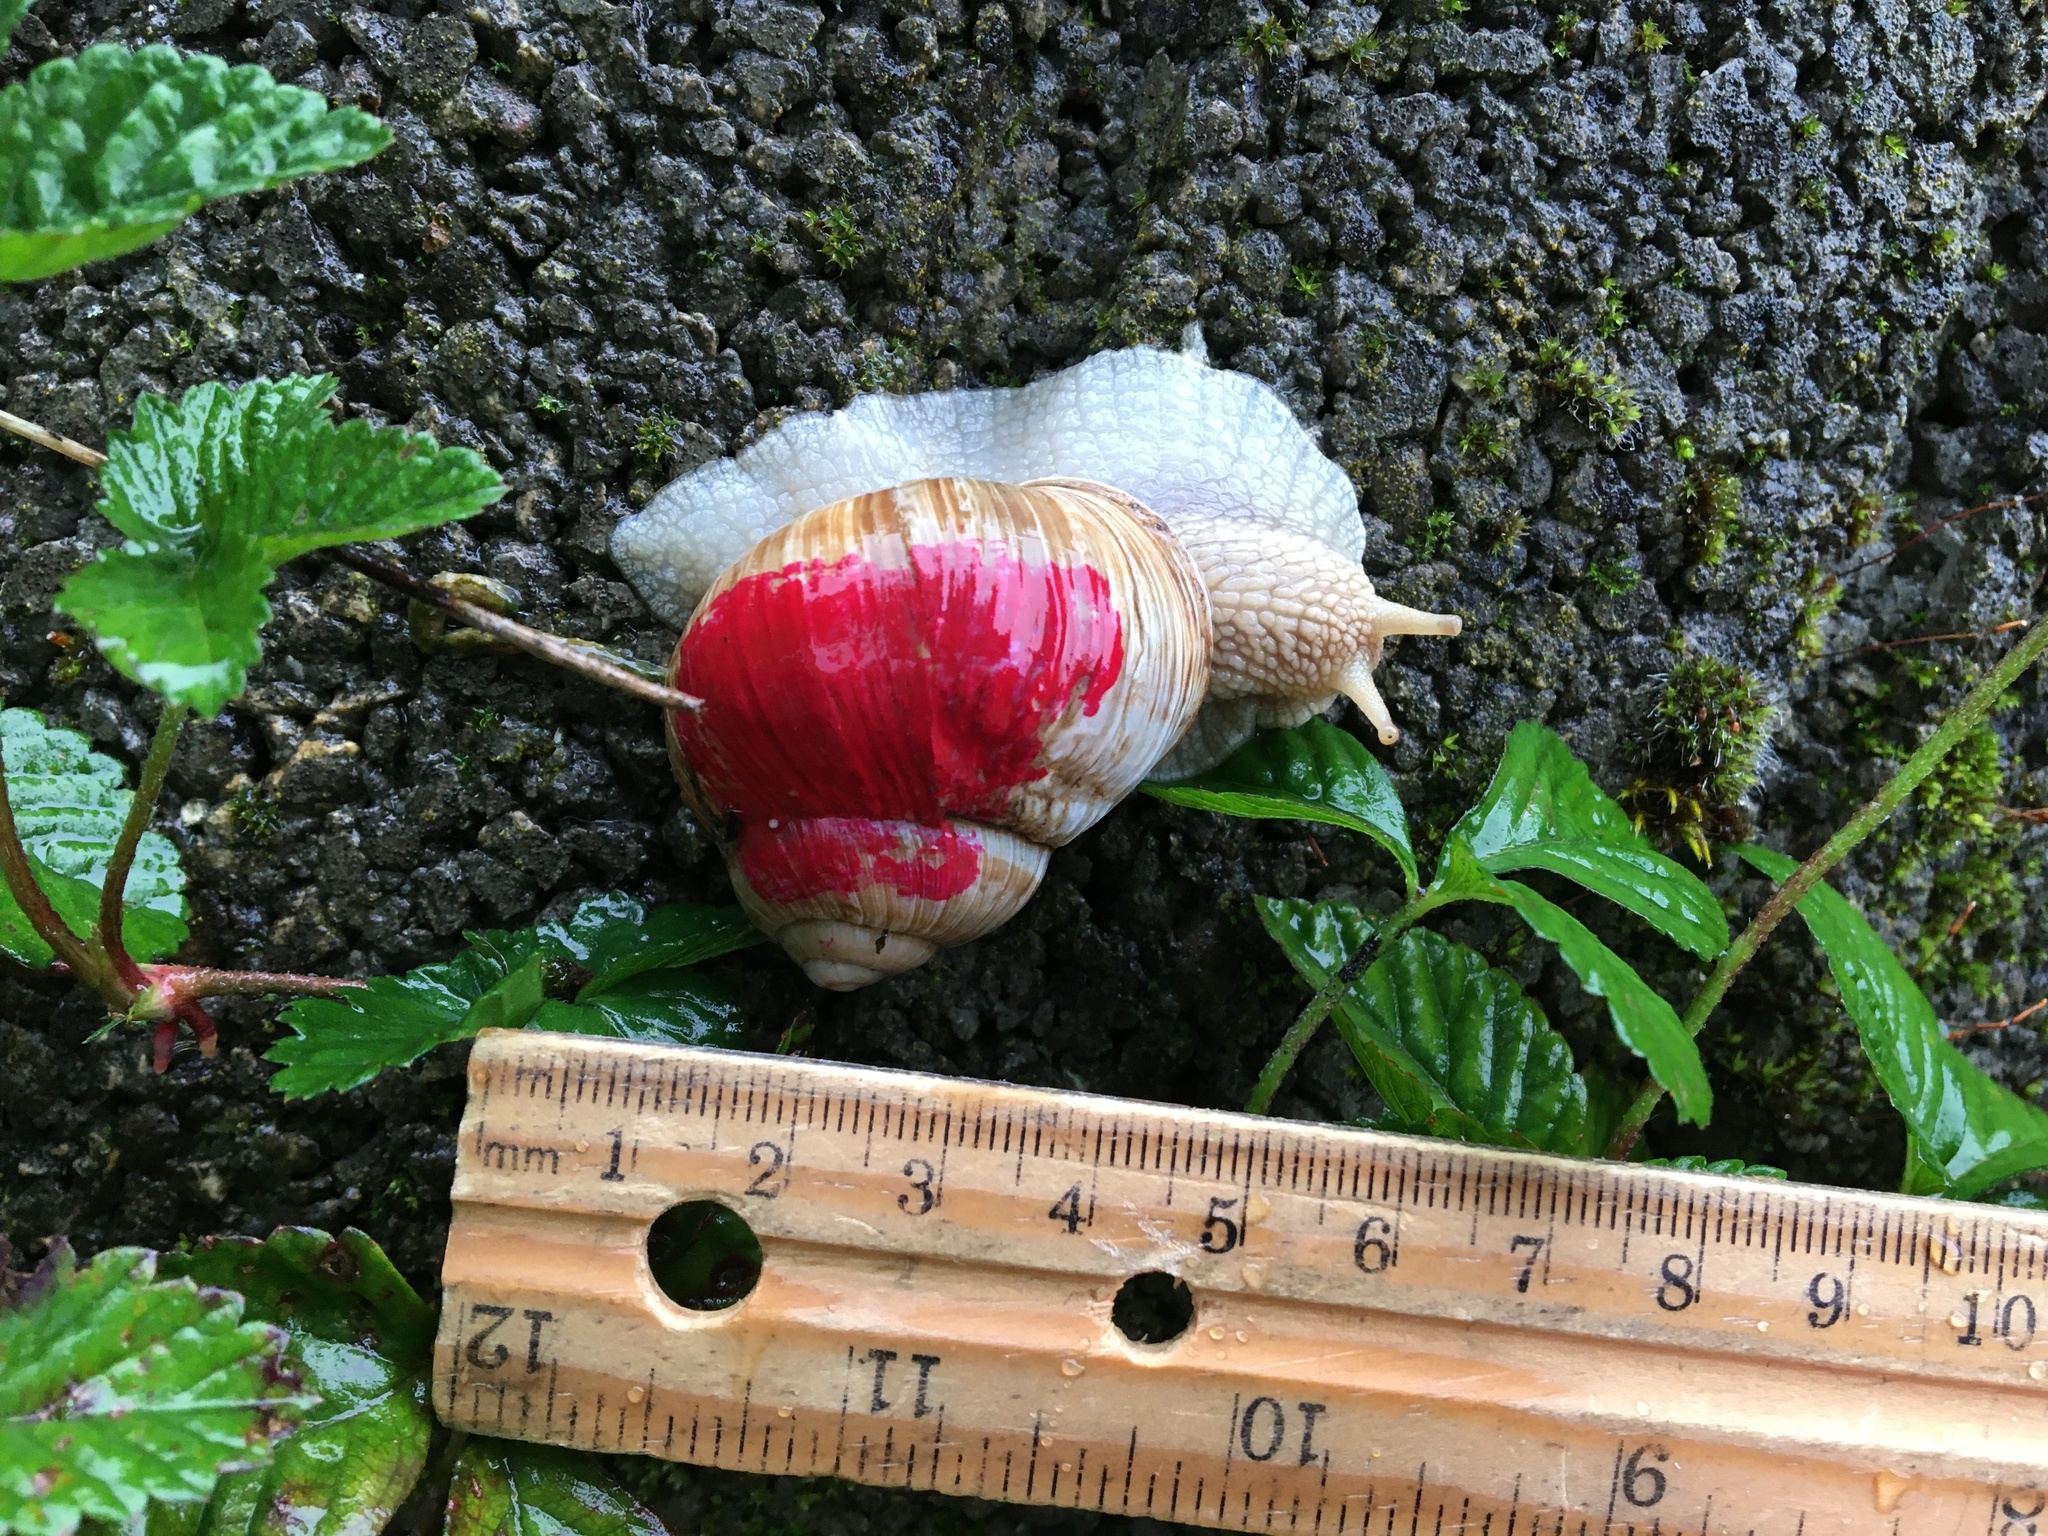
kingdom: Animalia
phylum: Mollusca
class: Gastropoda
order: Stylommatophora
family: Helicidae
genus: Helix
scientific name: Helix pomatia
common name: Roman snail
